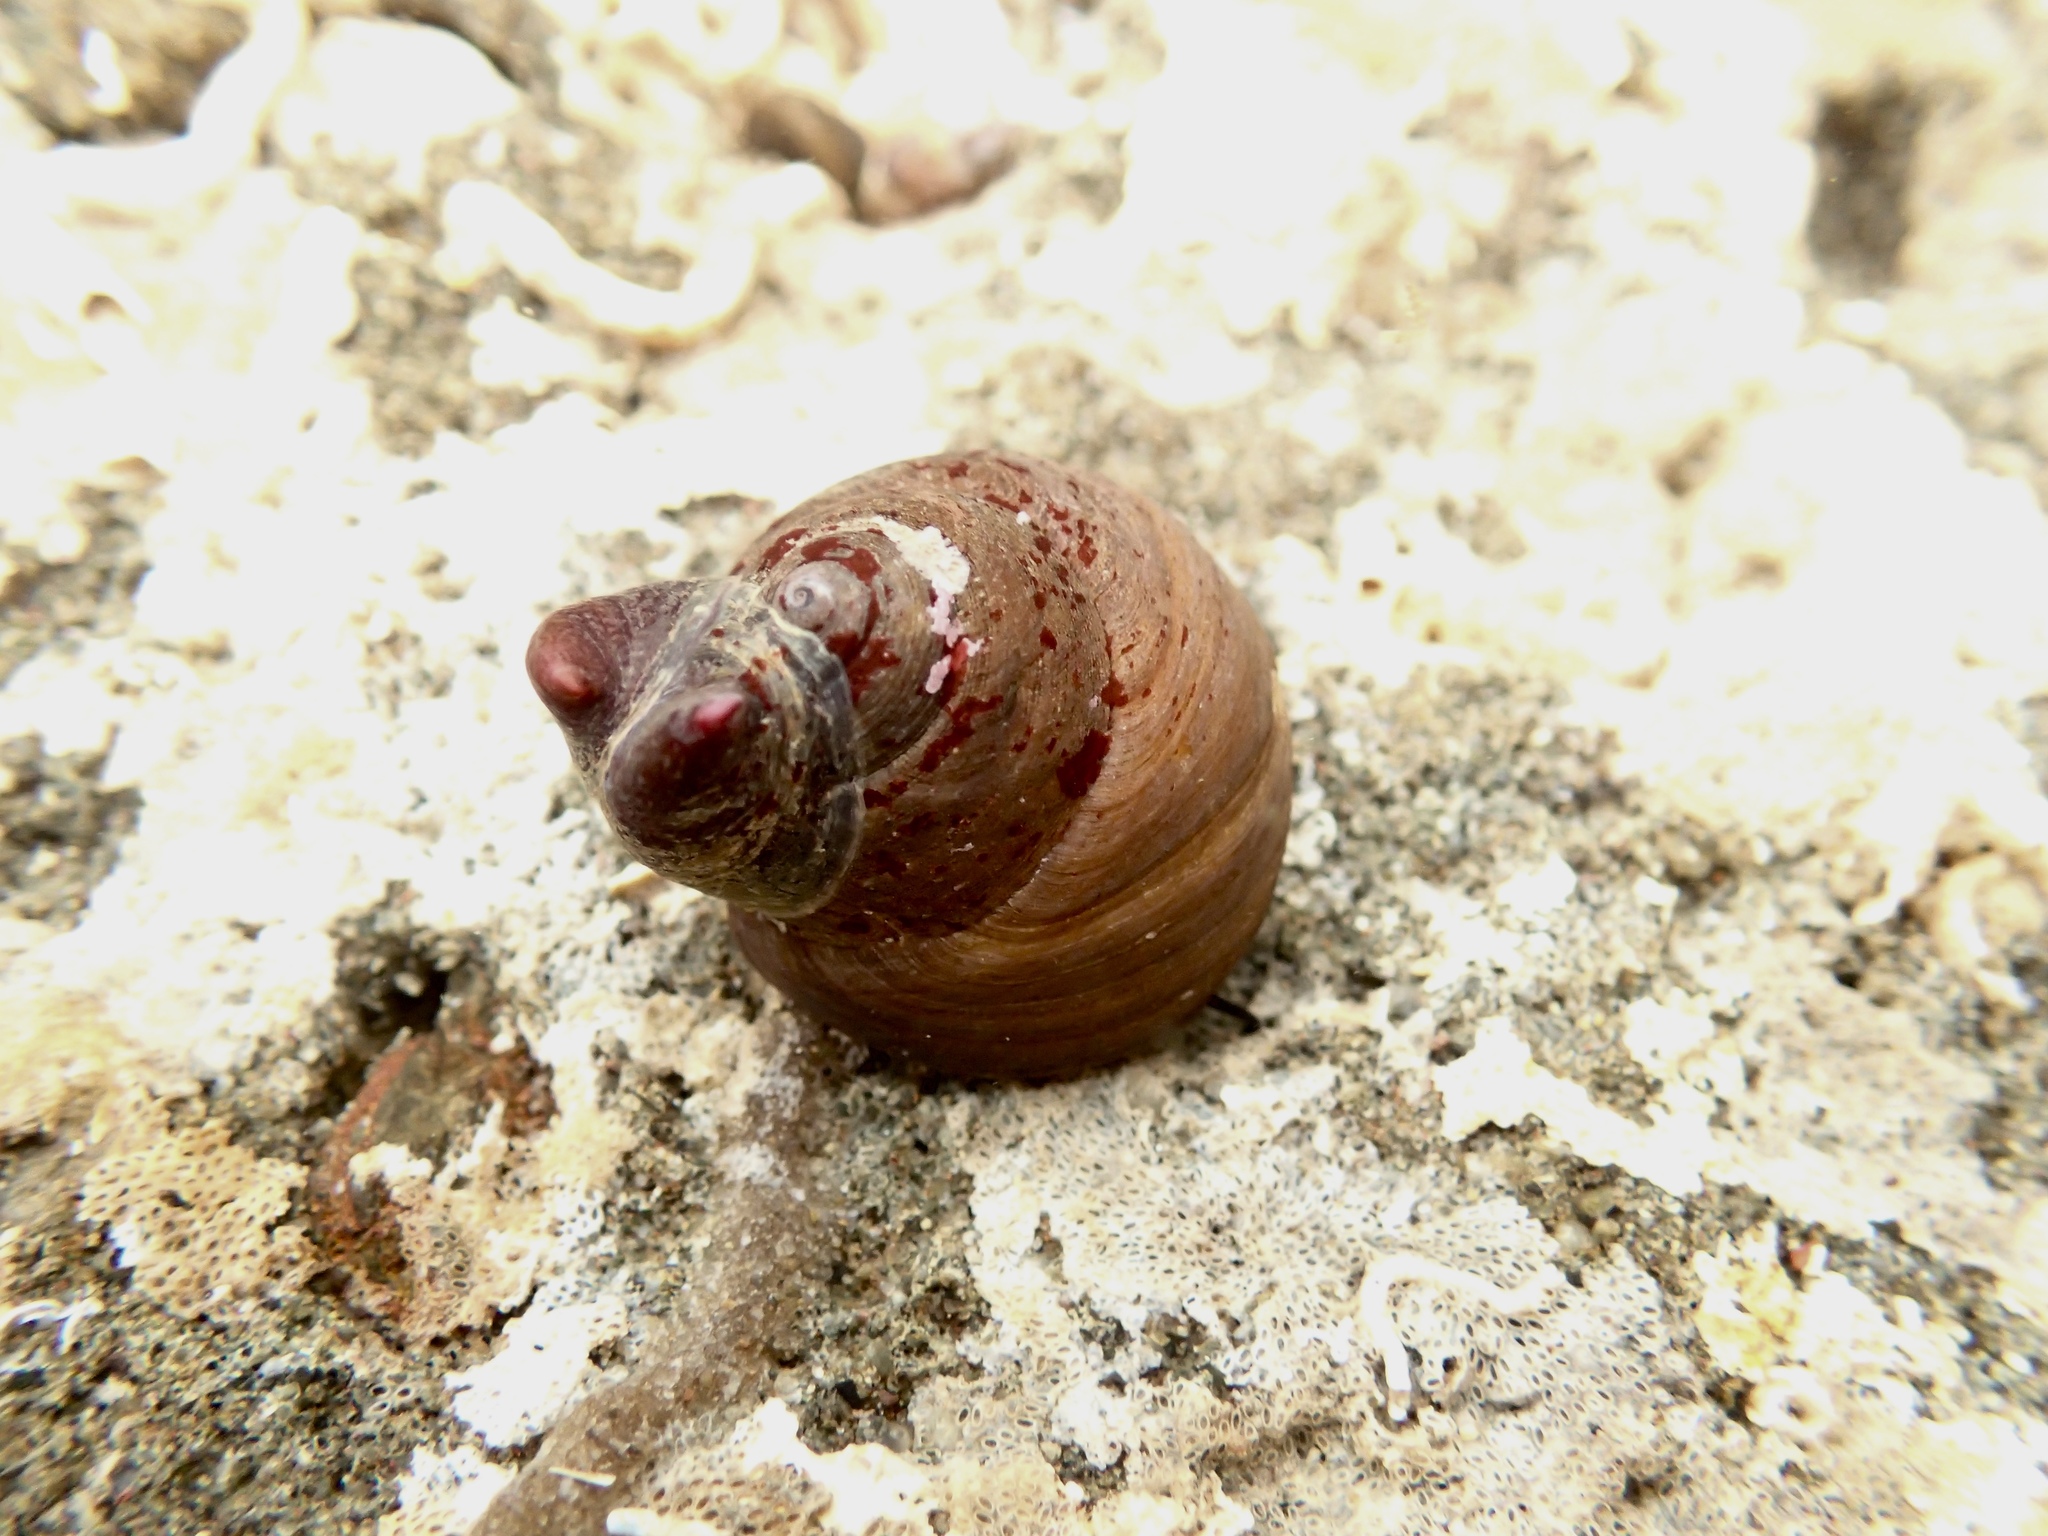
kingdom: Animalia
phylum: Mollusca
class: Gastropoda
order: Trochida
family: Tegulidae
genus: Tegula
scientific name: Tegula brunnea
